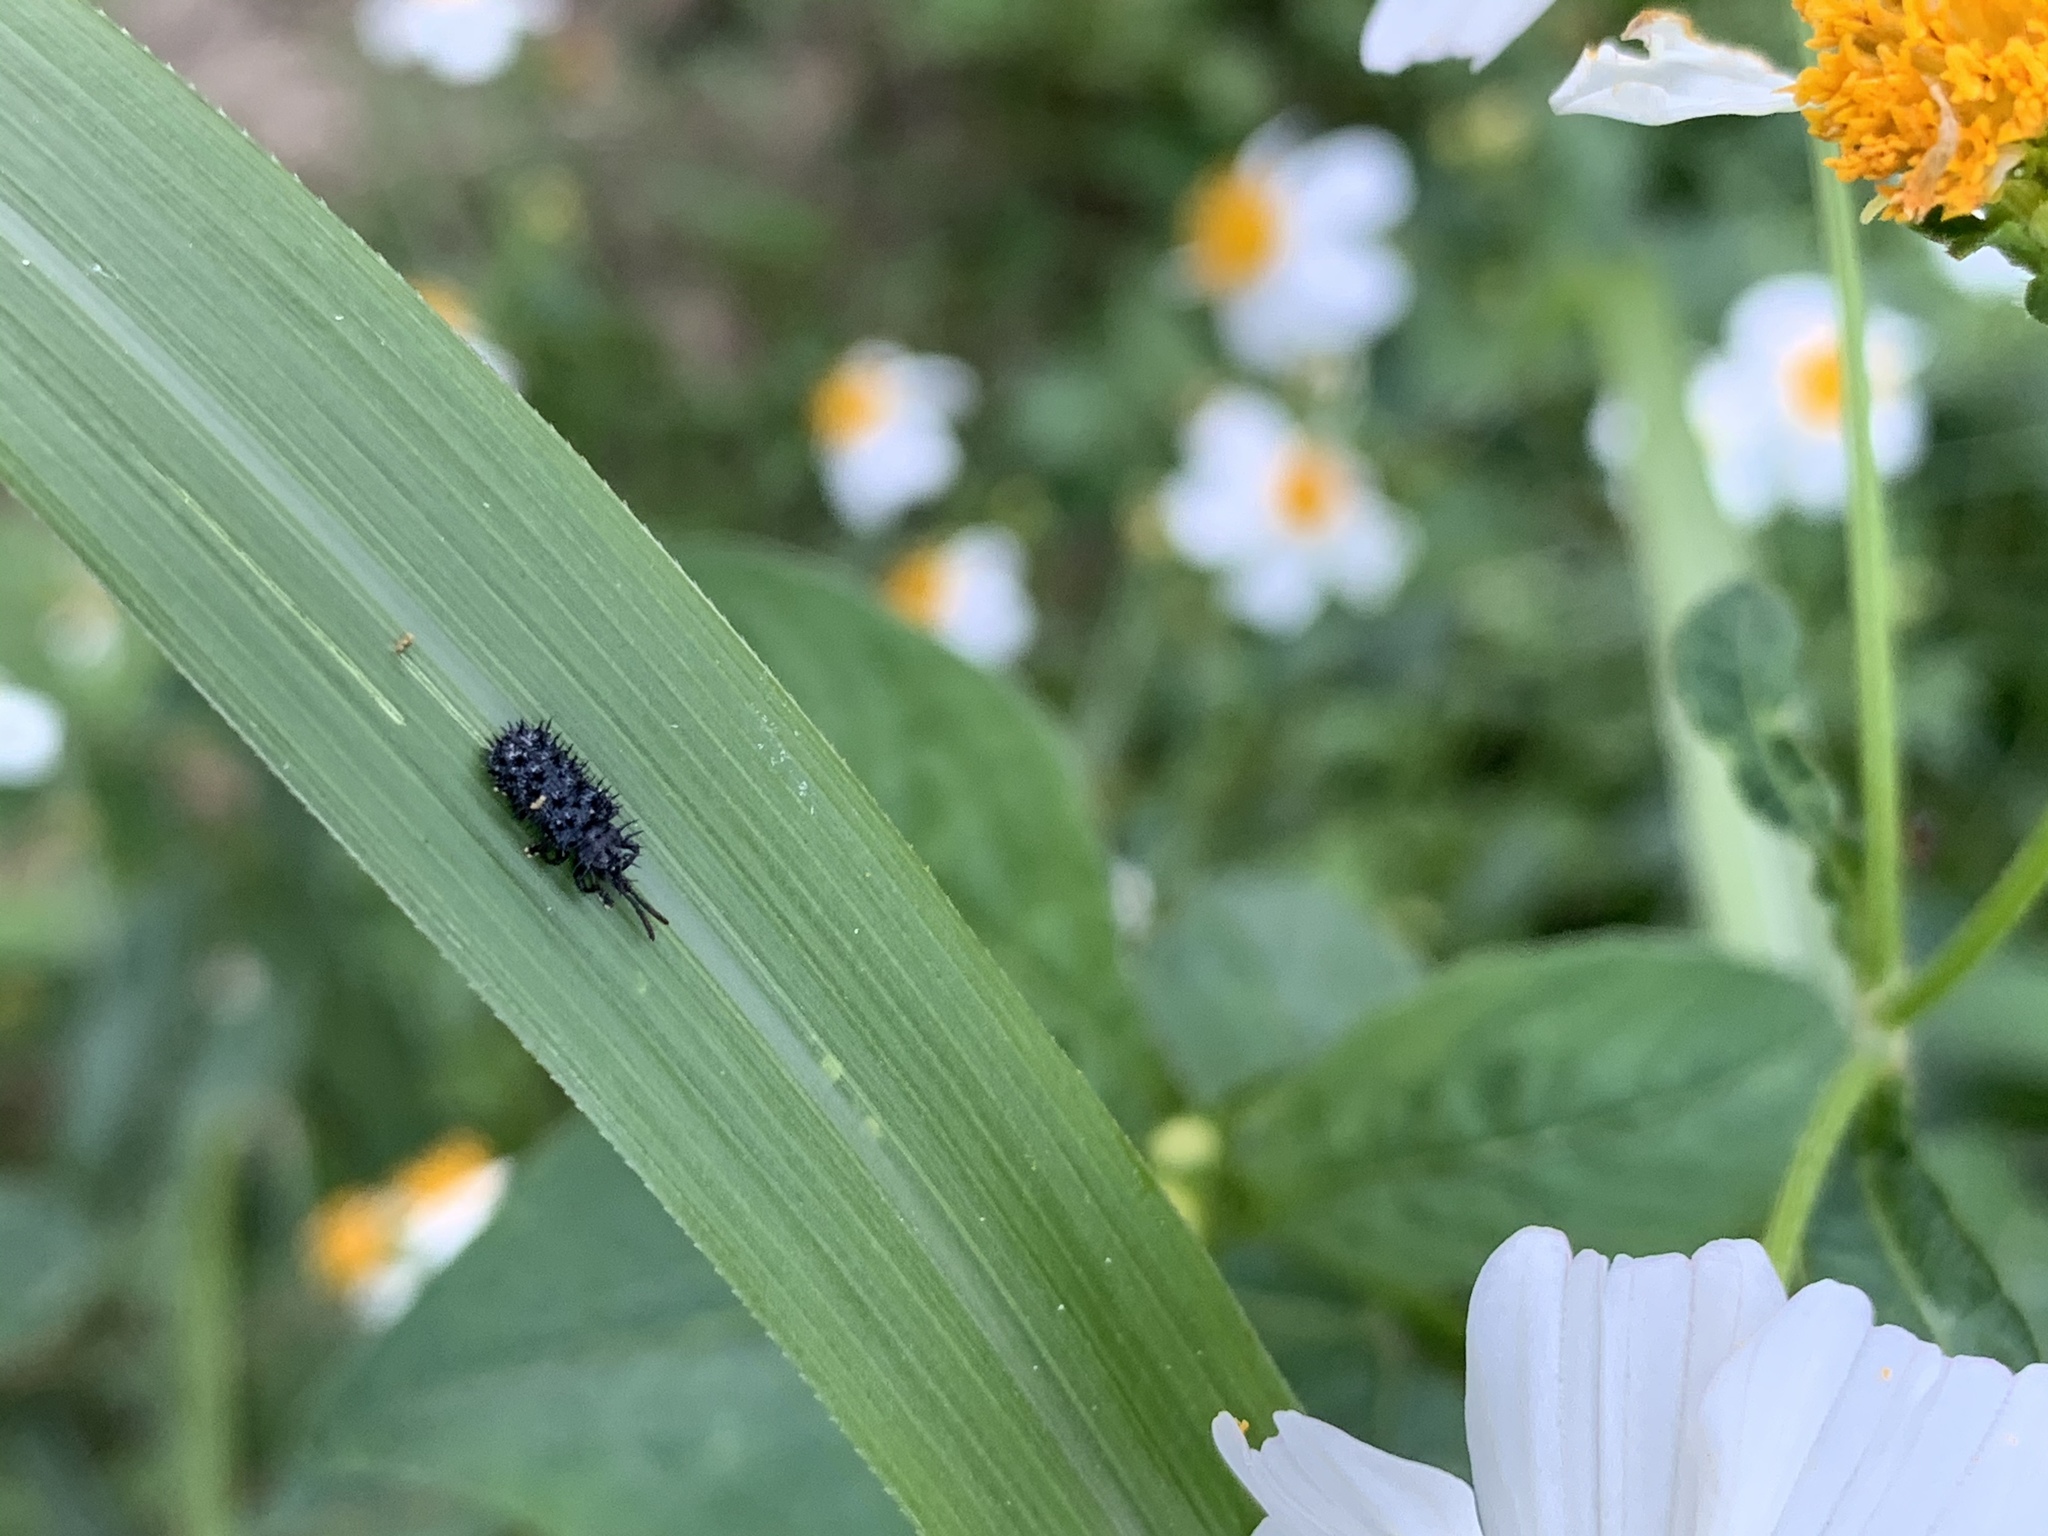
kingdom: Animalia
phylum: Arthropoda
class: Insecta
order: Coleoptera
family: Chrysomelidae
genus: Dactylispa
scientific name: Dactylispa sauteri
